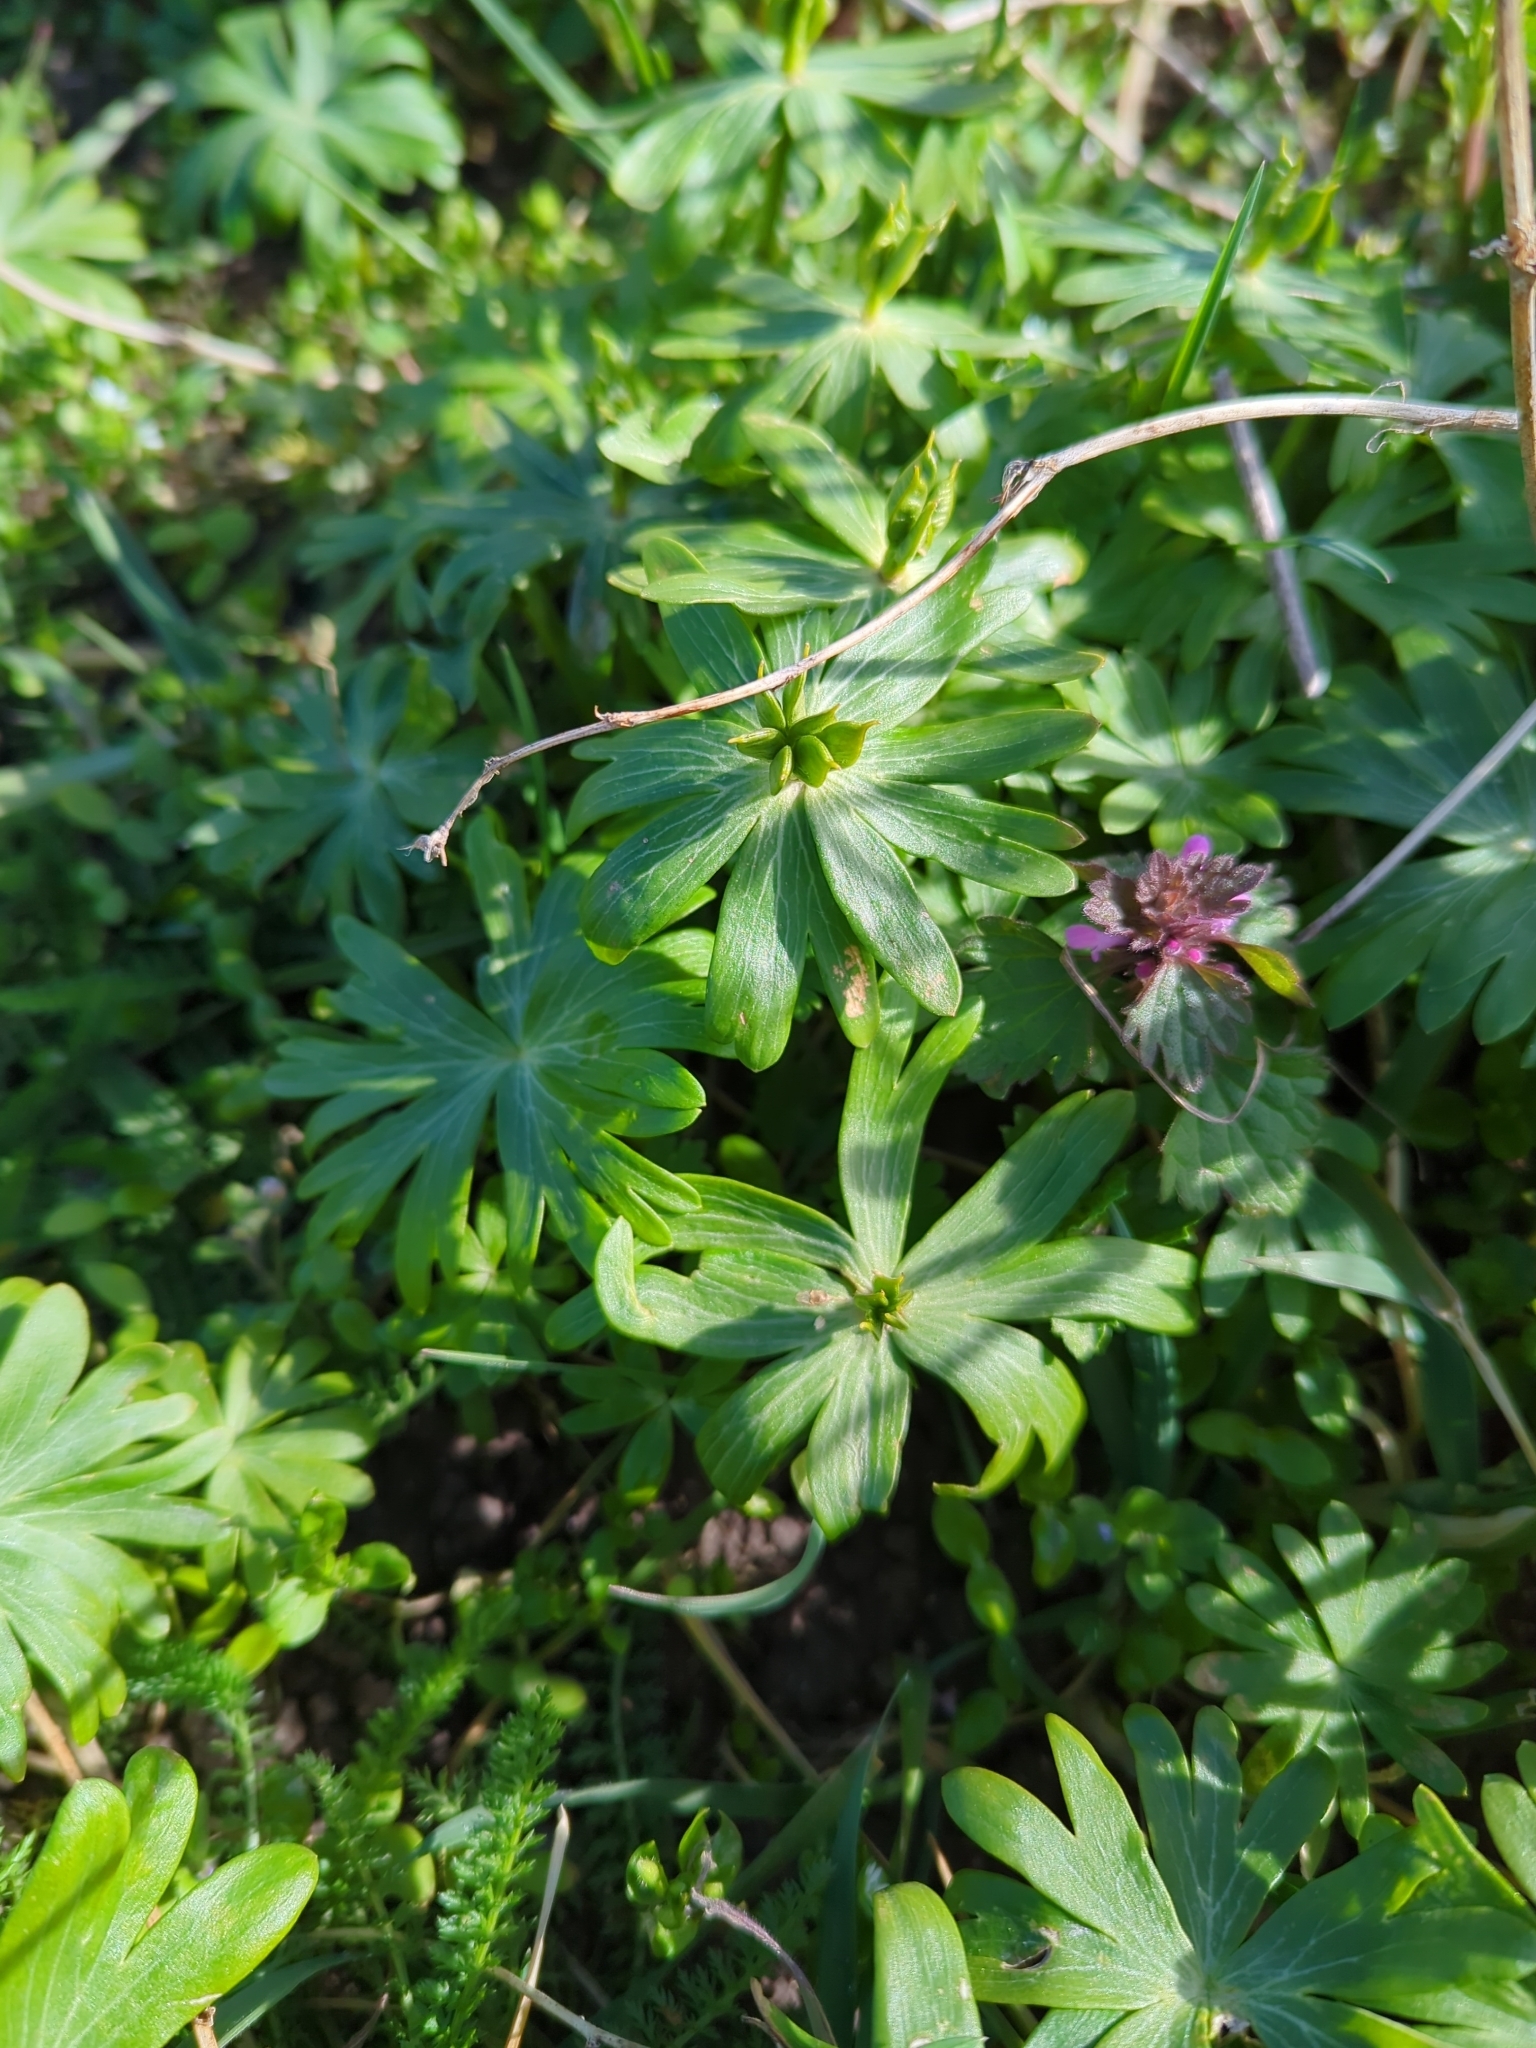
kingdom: Plantae
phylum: Tracheophyta
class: Magnoliopsida
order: Ranunculales
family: Ranunculaceae
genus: Eranthis
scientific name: Eranthis hyemalis
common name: Winter aconite
